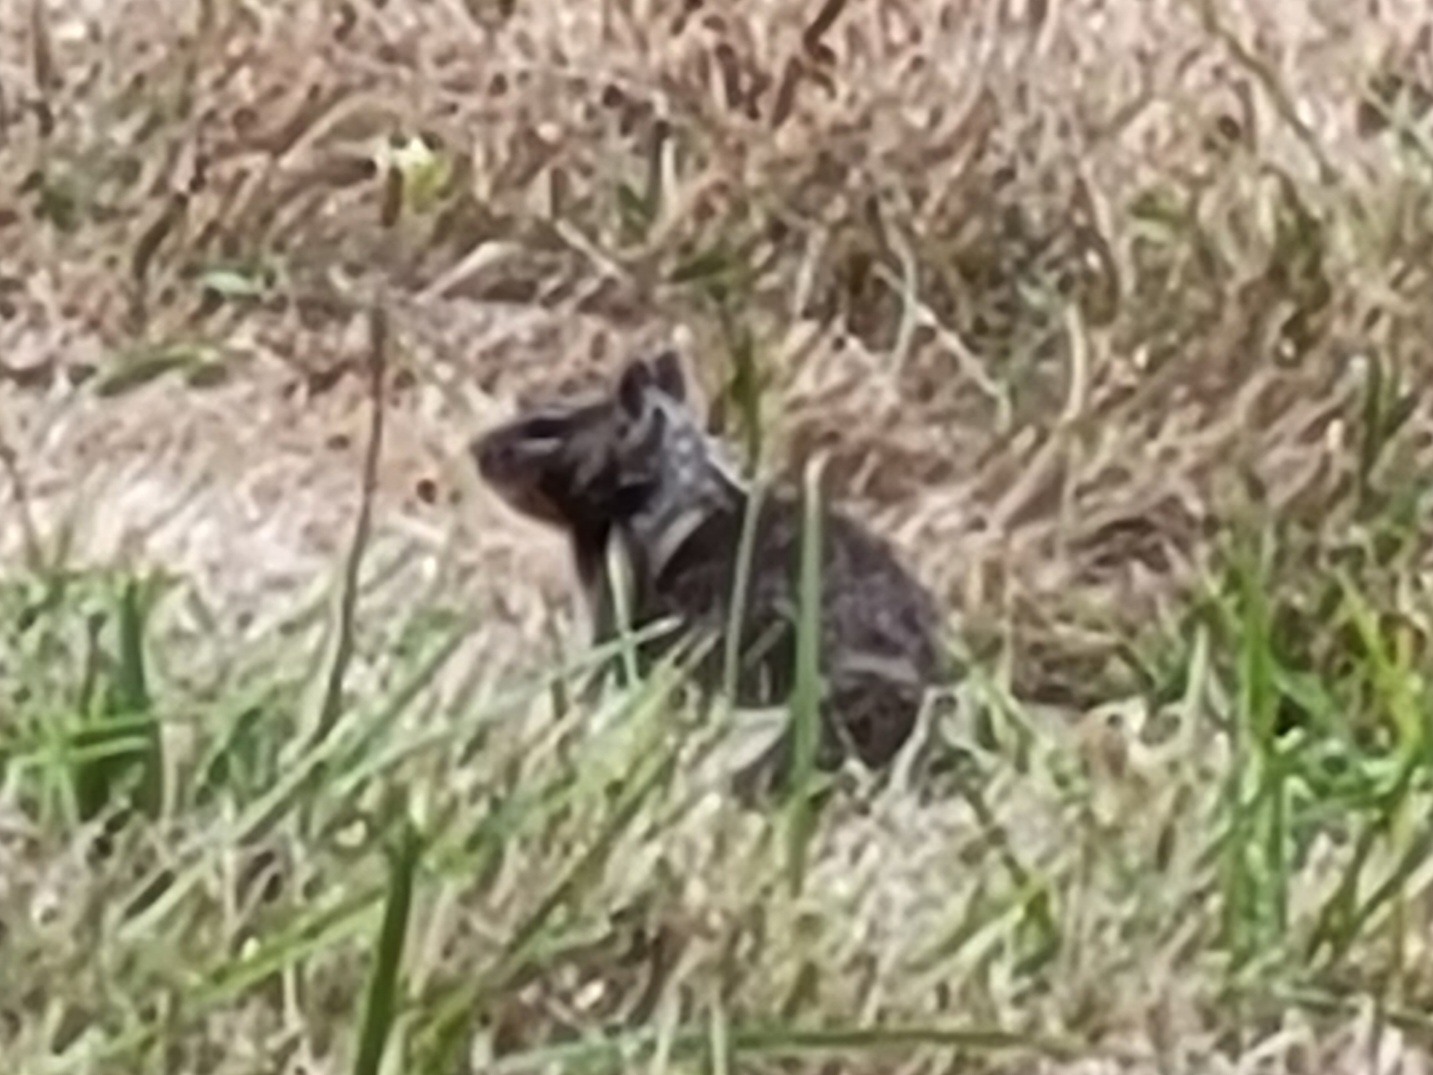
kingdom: Animalia
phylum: Chordata
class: Mammalia
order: Rodentia
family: Sciuridae
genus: Otospermophilus
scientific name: Otospermophilus beecheyi
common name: California ground squirrel
